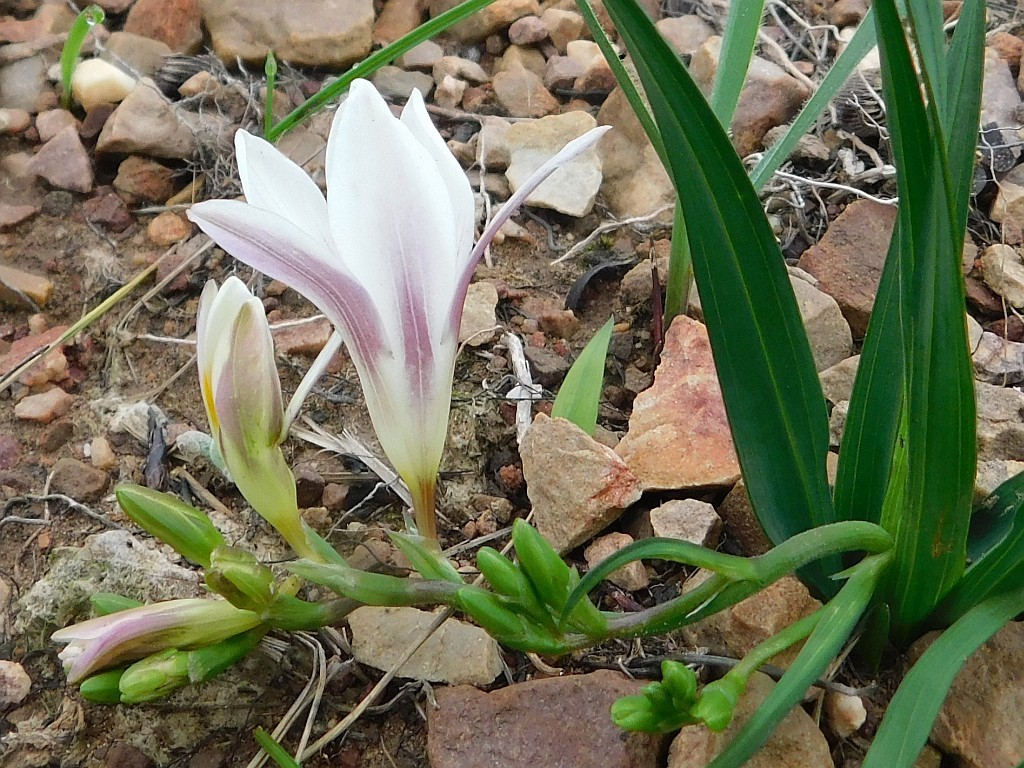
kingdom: Plantae
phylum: Tracheophyta
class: Liliopsida
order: Asparagales
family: Iridaceae
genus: Freesia
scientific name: Freesia caryophyllacea
